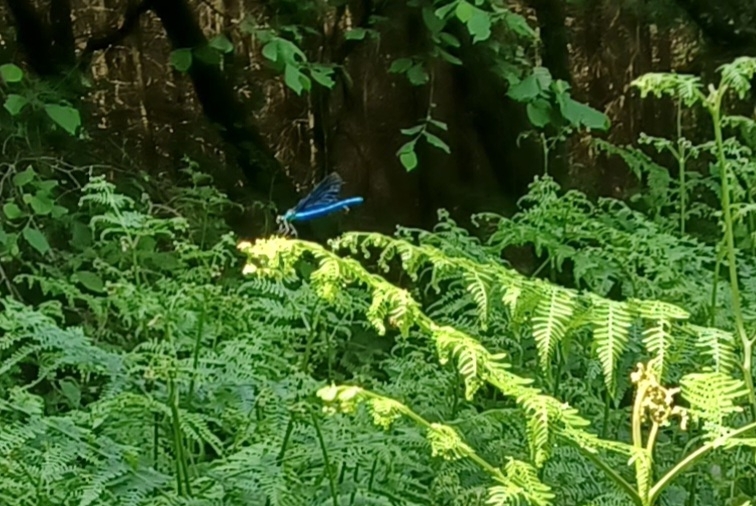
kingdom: Animalia
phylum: Arthropoda
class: Insecta
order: Odonata
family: Calopterygidae
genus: Calopteryx
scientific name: Calopteryx virgo
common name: Beautiful demoiselle
